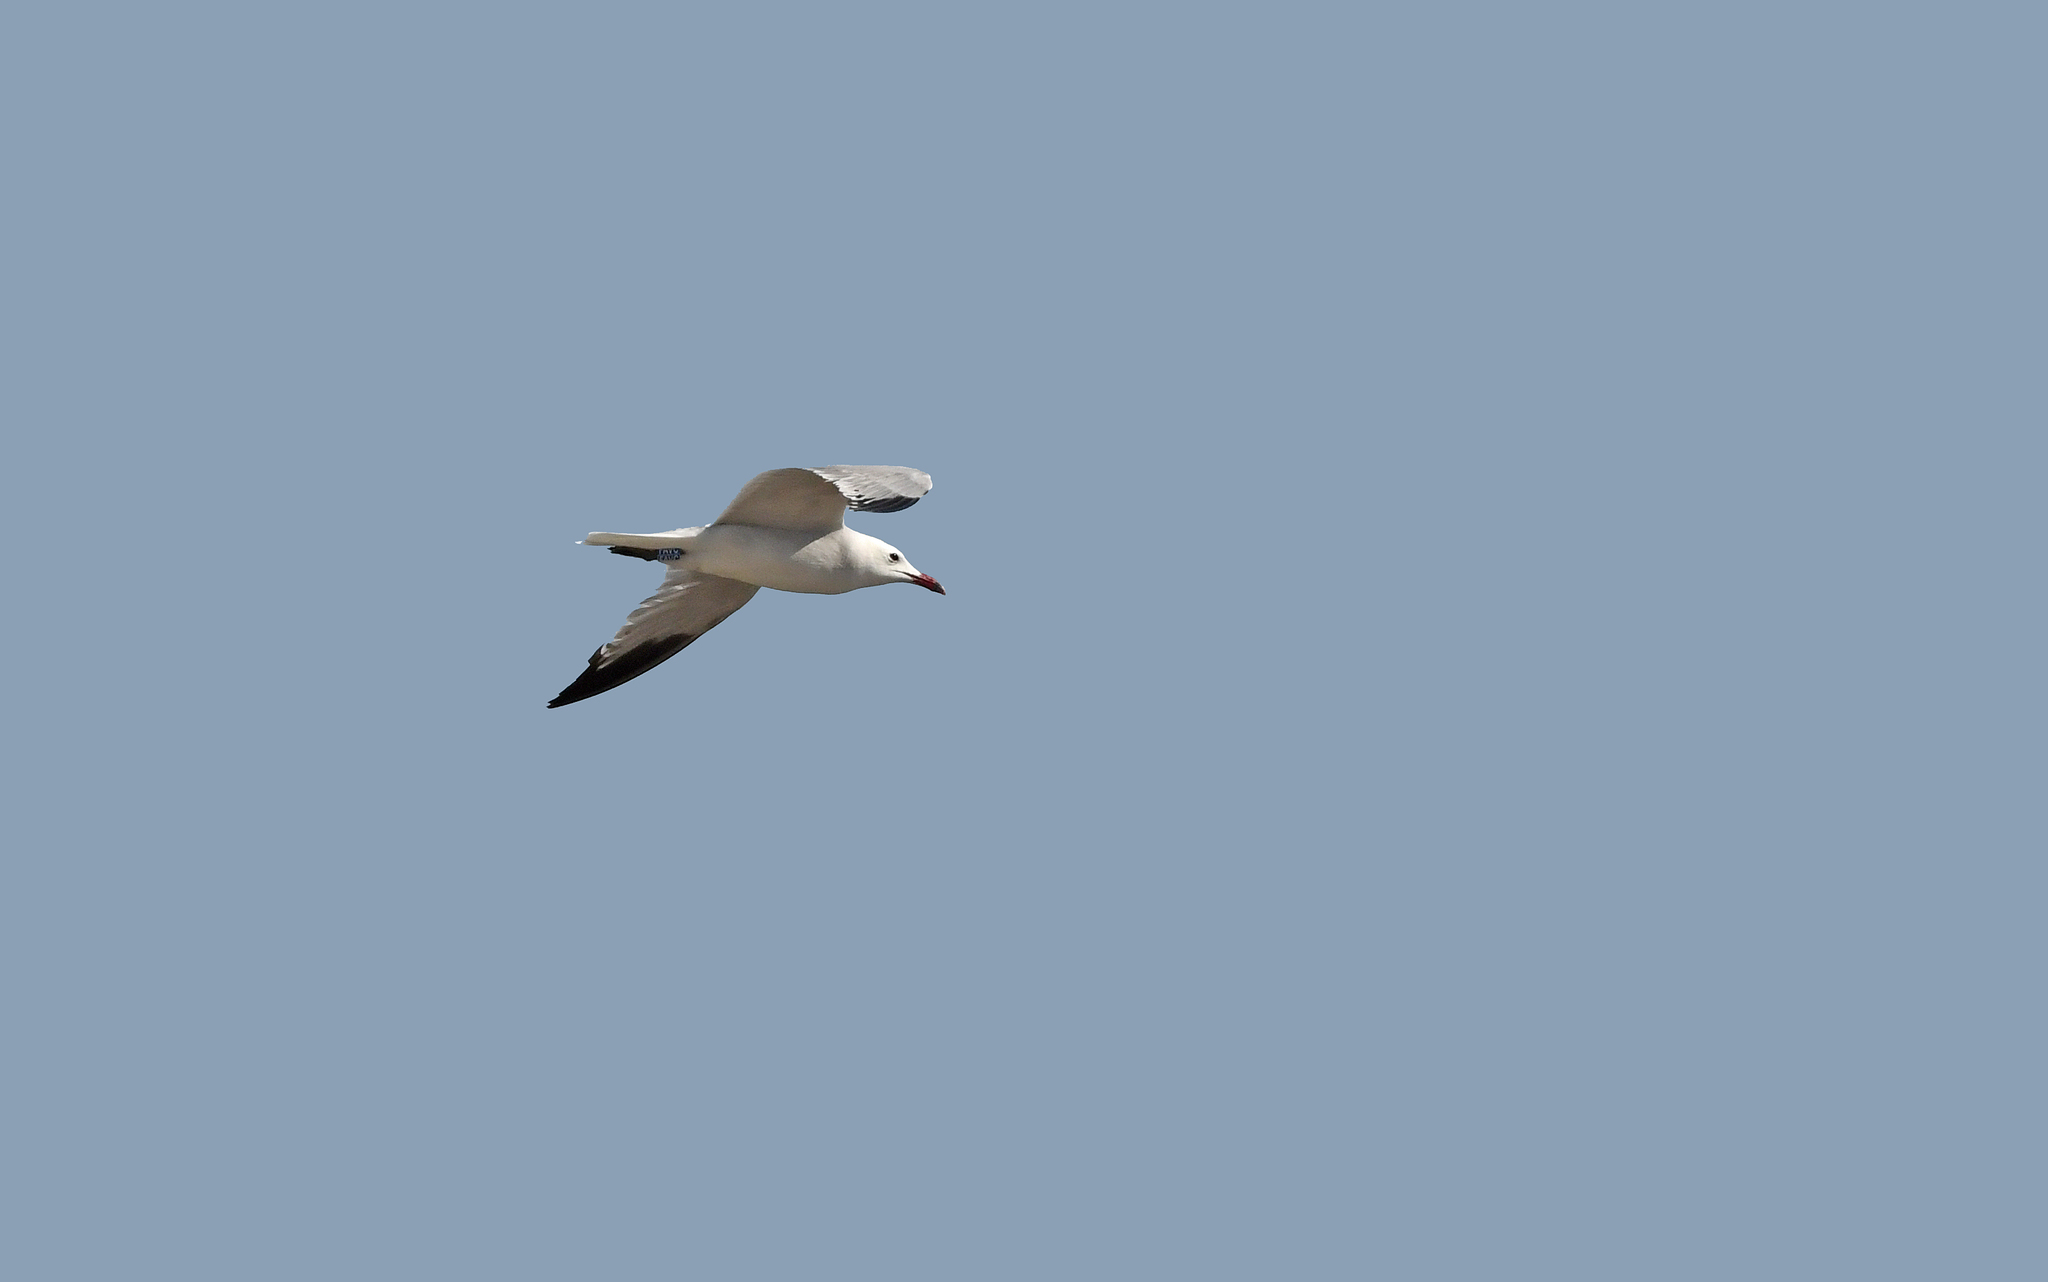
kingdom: Animalia
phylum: Chordata
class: Aves
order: Charadriiformes
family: Laridae
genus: Ichthyaetus
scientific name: Ichthyaetus audouinii
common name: Audouin's gull
